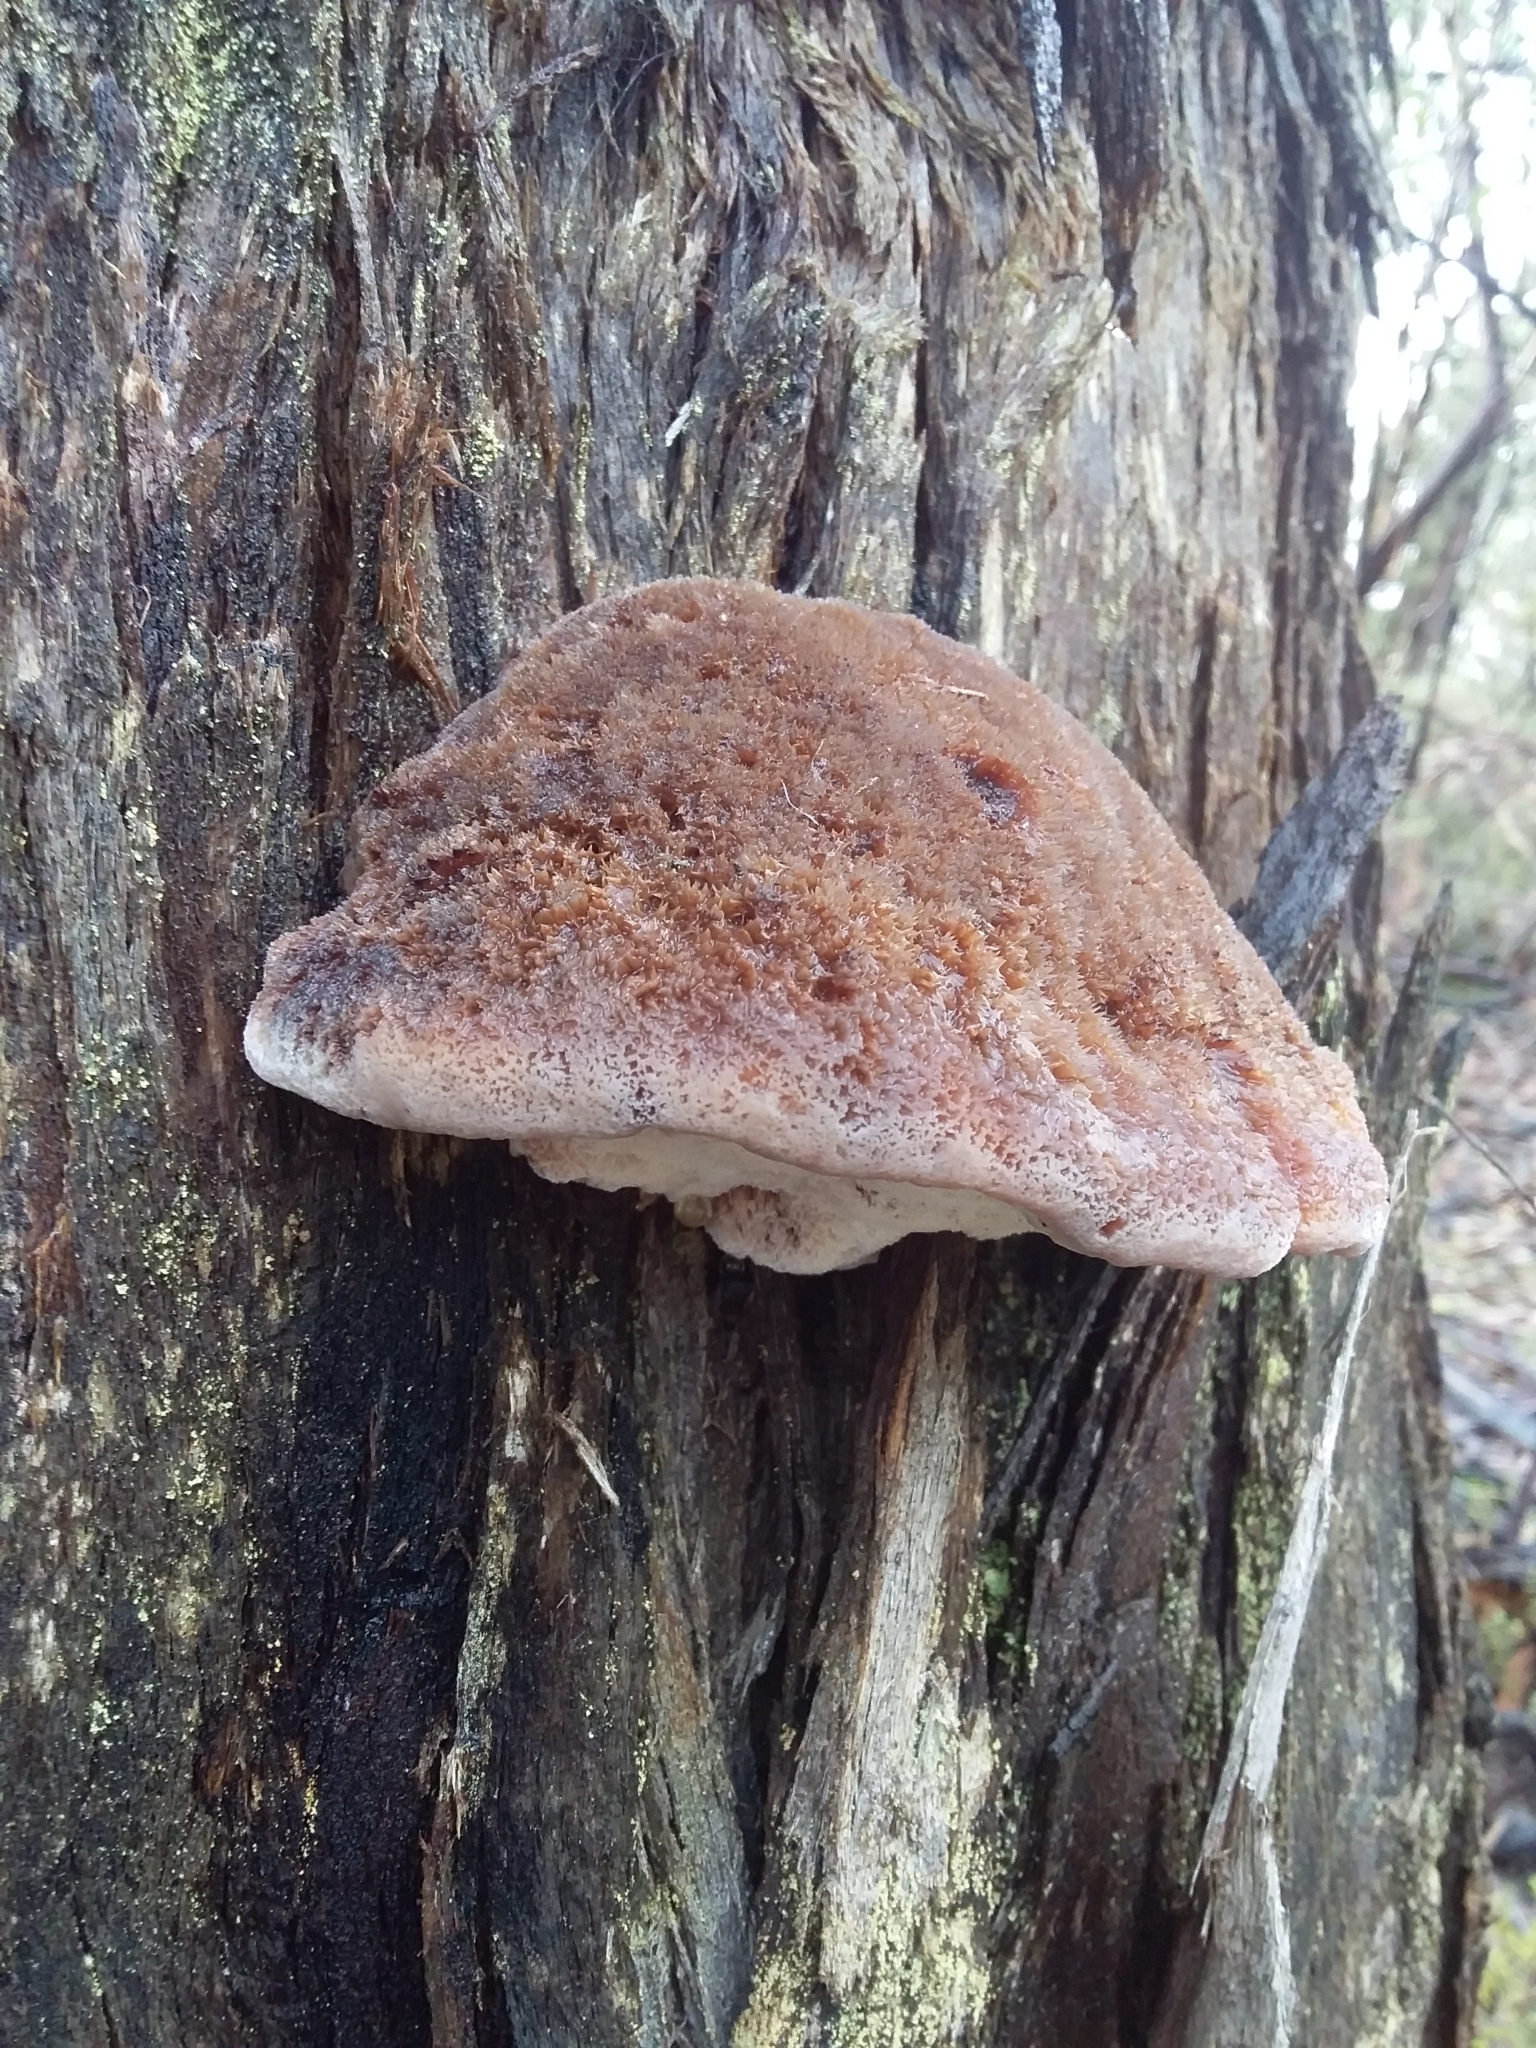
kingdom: Fungi
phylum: Basidiomycota
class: Agaricomycetes
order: Polyporales
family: Dacryobolaceae
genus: Oligoporus
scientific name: Oligoporus pelliculosus
